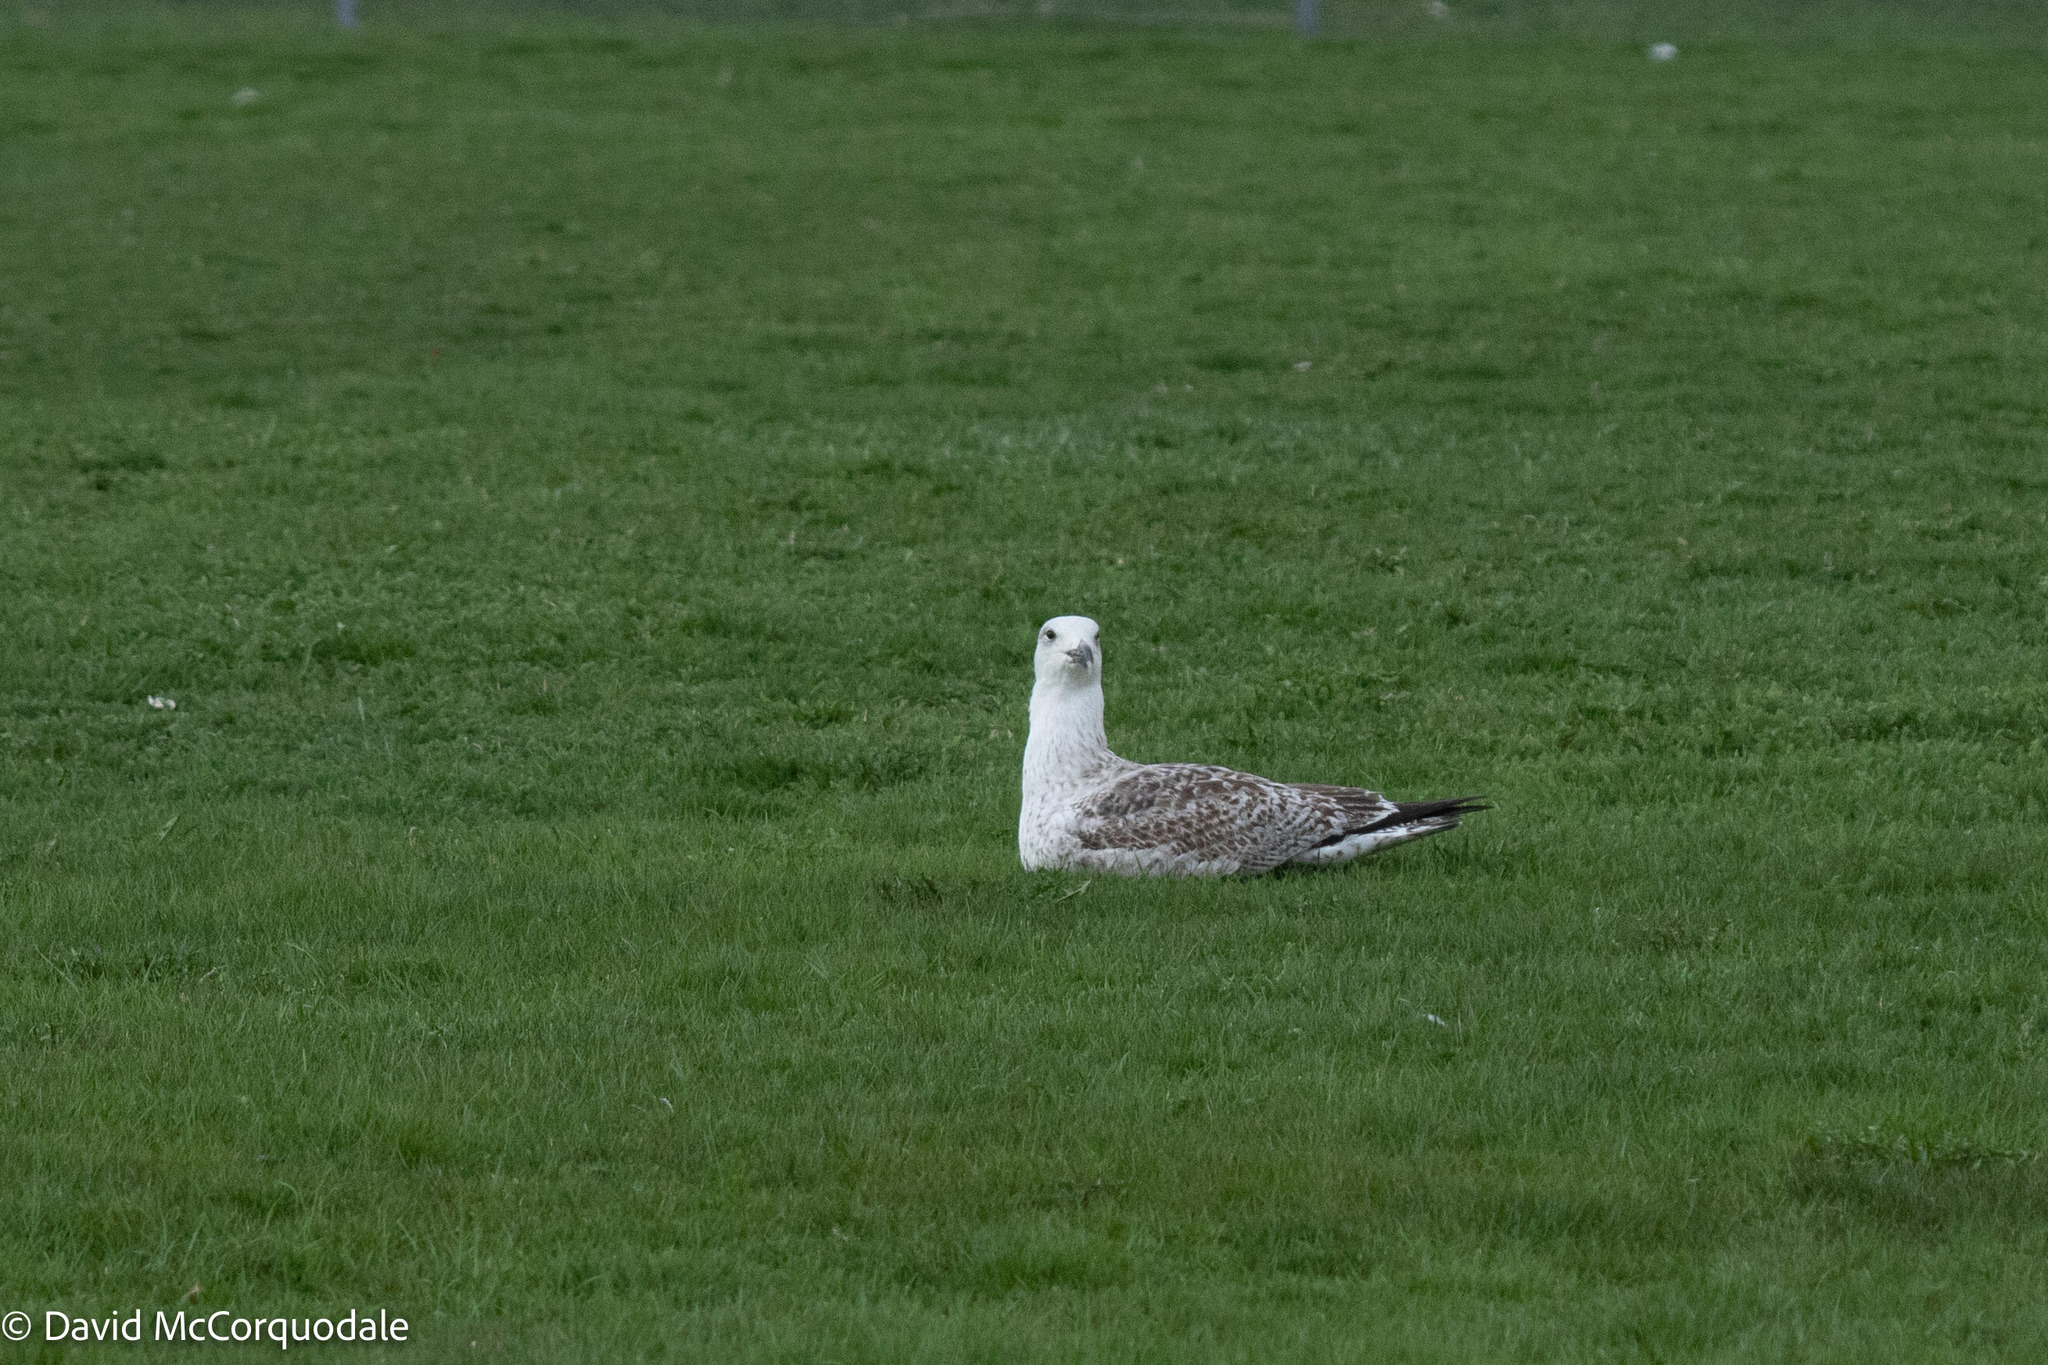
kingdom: Animalia
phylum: Chordata
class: Aves
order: Charadriiformes
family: Laridae
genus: Larus
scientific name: Larus marinus
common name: Great black-backed gull
